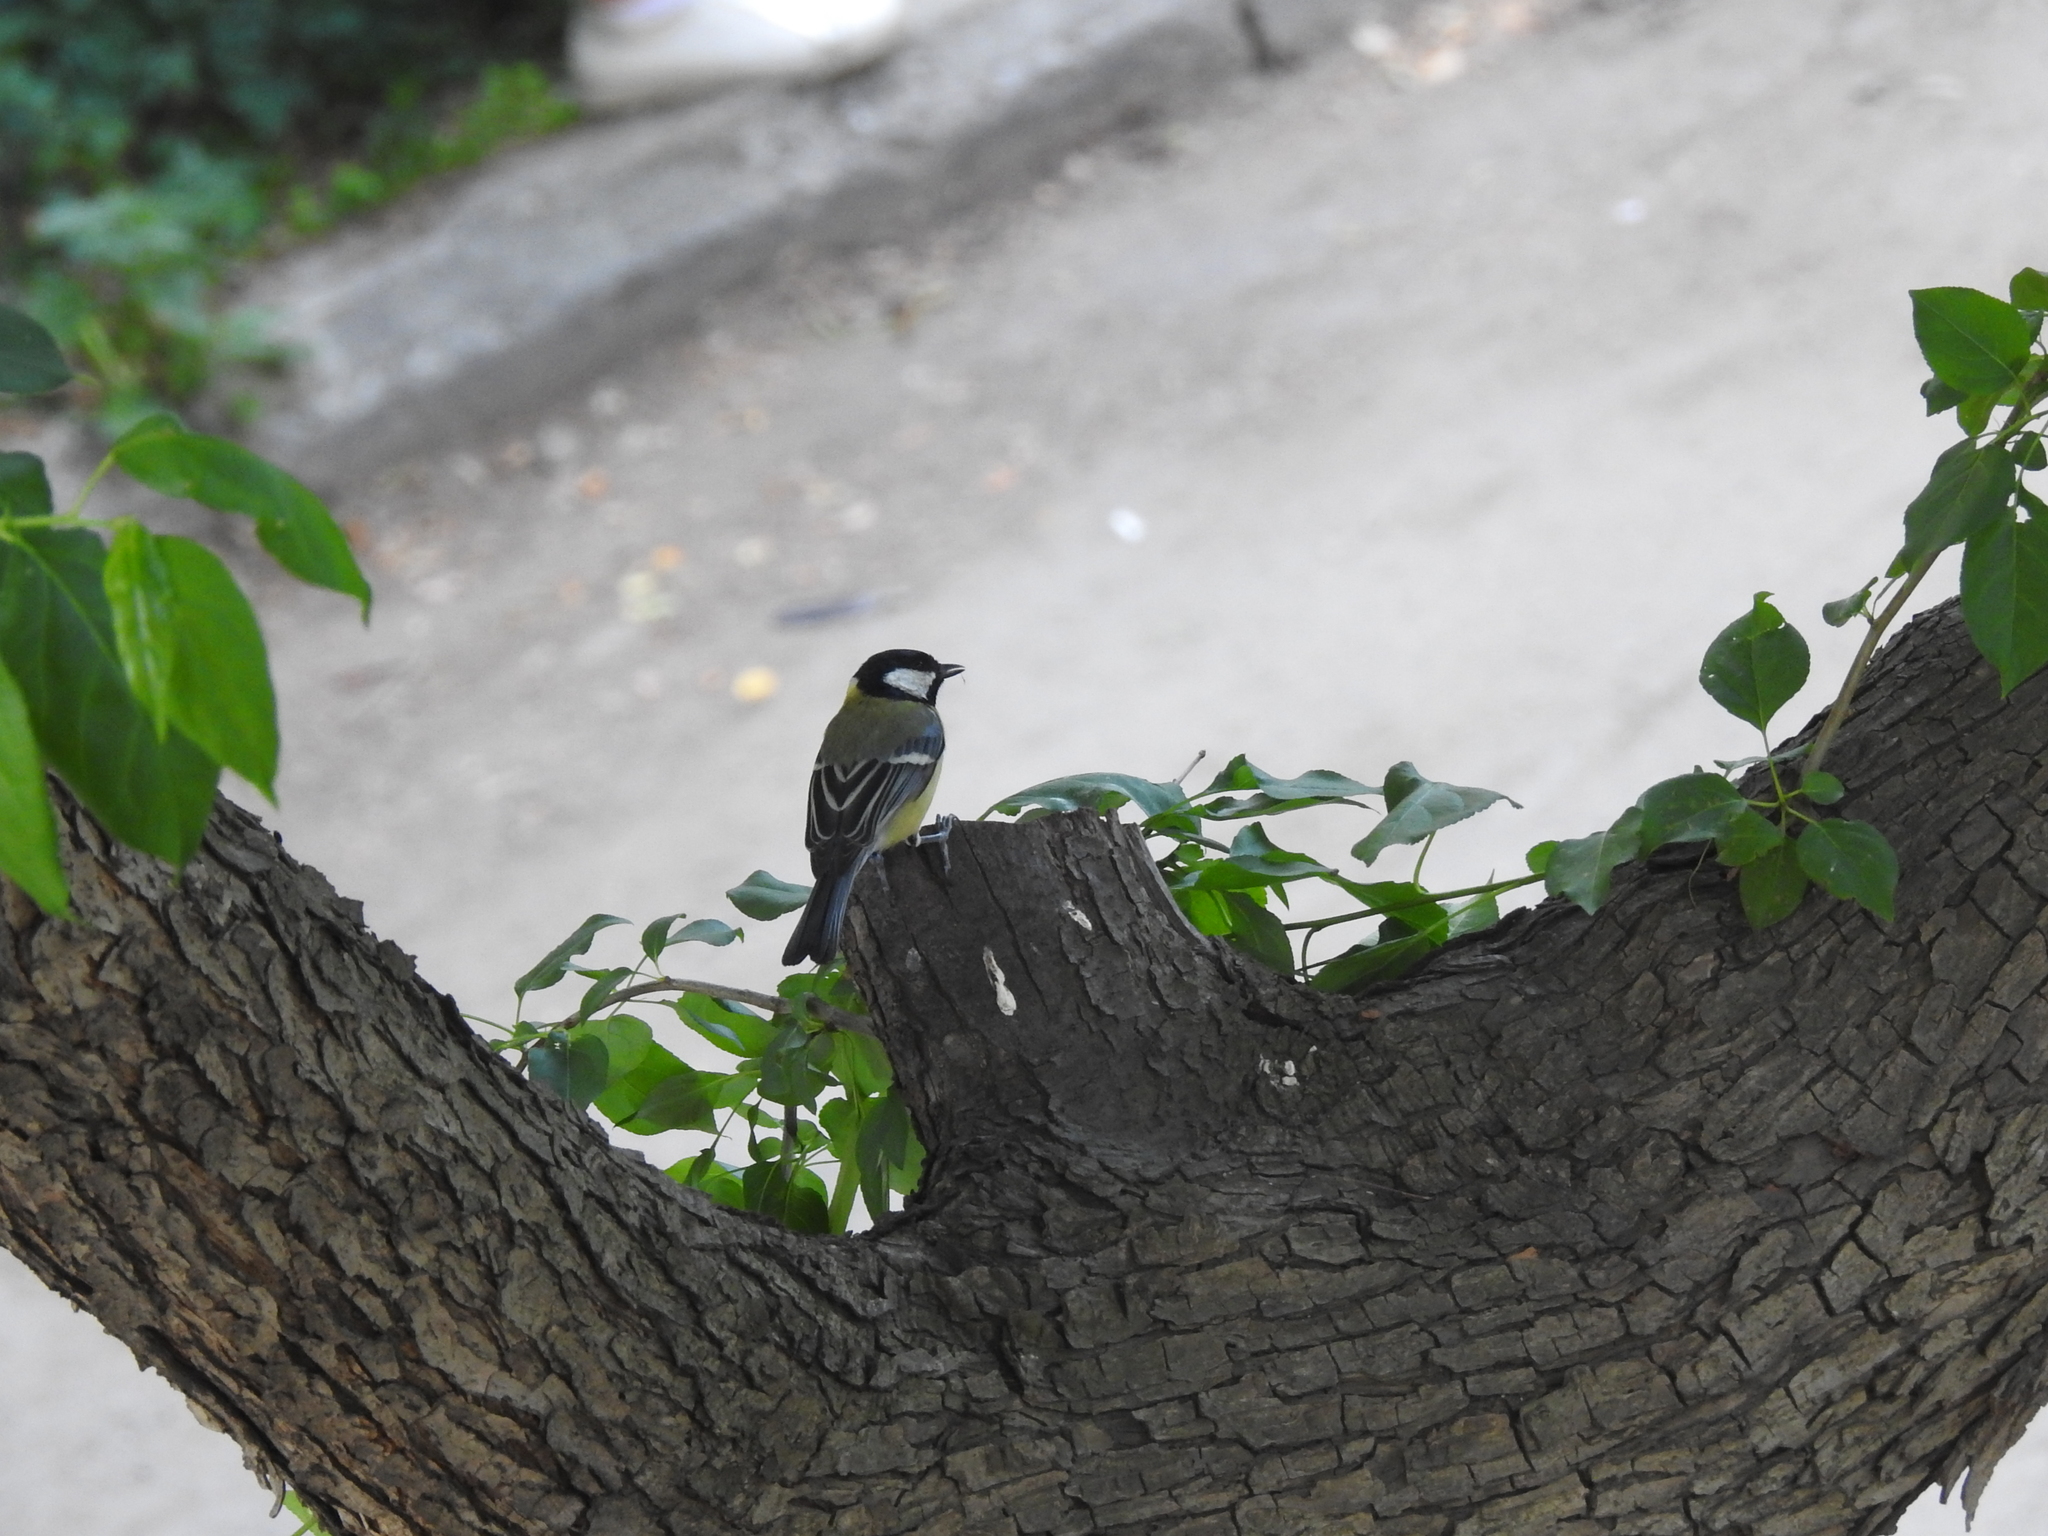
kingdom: Animalia
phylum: Chordata
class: Aves
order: Passeriformes
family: Paridae
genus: Parus
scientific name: Parus major
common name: Great tit
